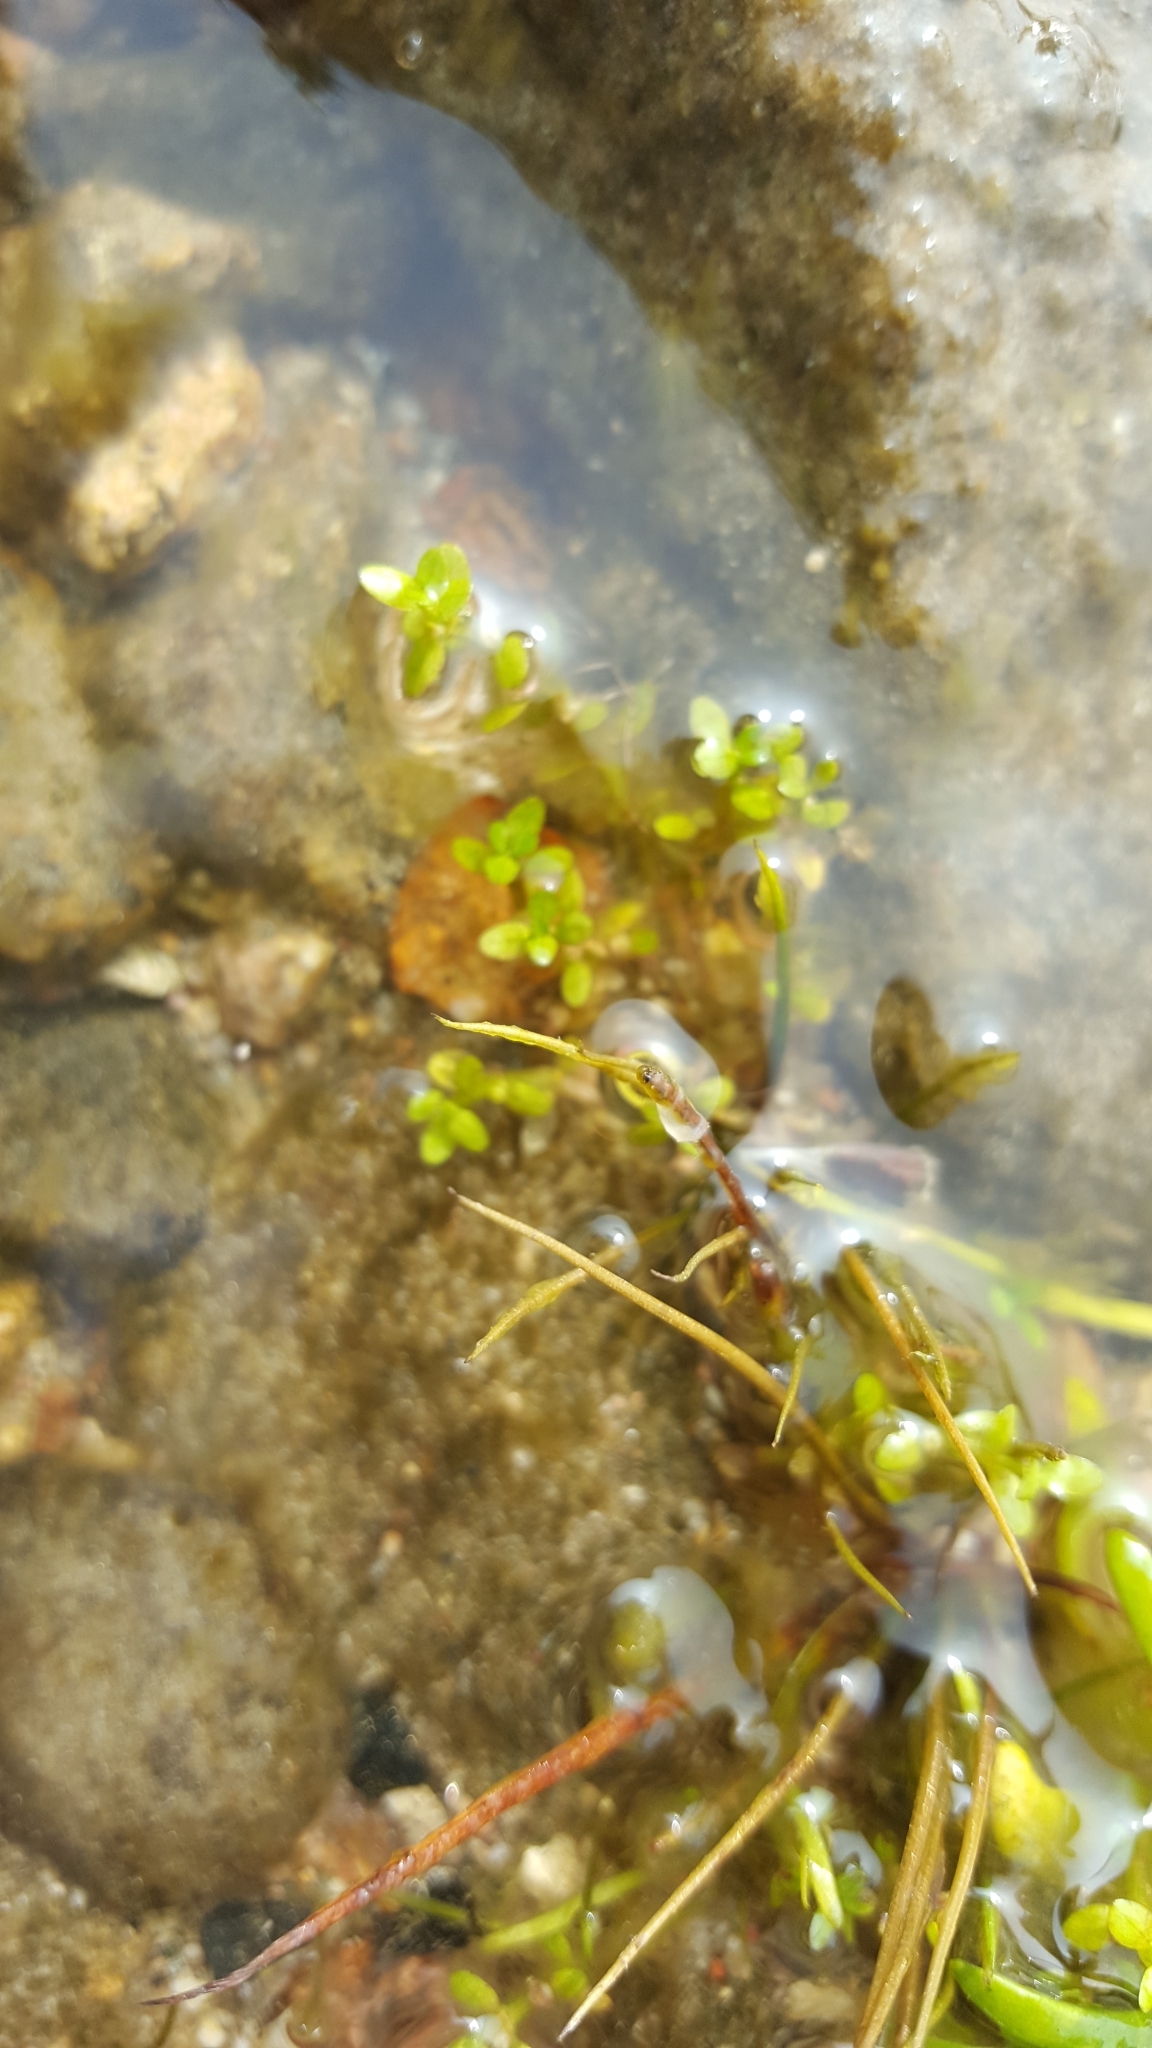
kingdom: Plantae
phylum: Tracheophyta
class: Magnoliopsida
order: Malpighiales
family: Elatinaceae
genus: Elatine
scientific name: Elatine minima
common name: Small waterwort
